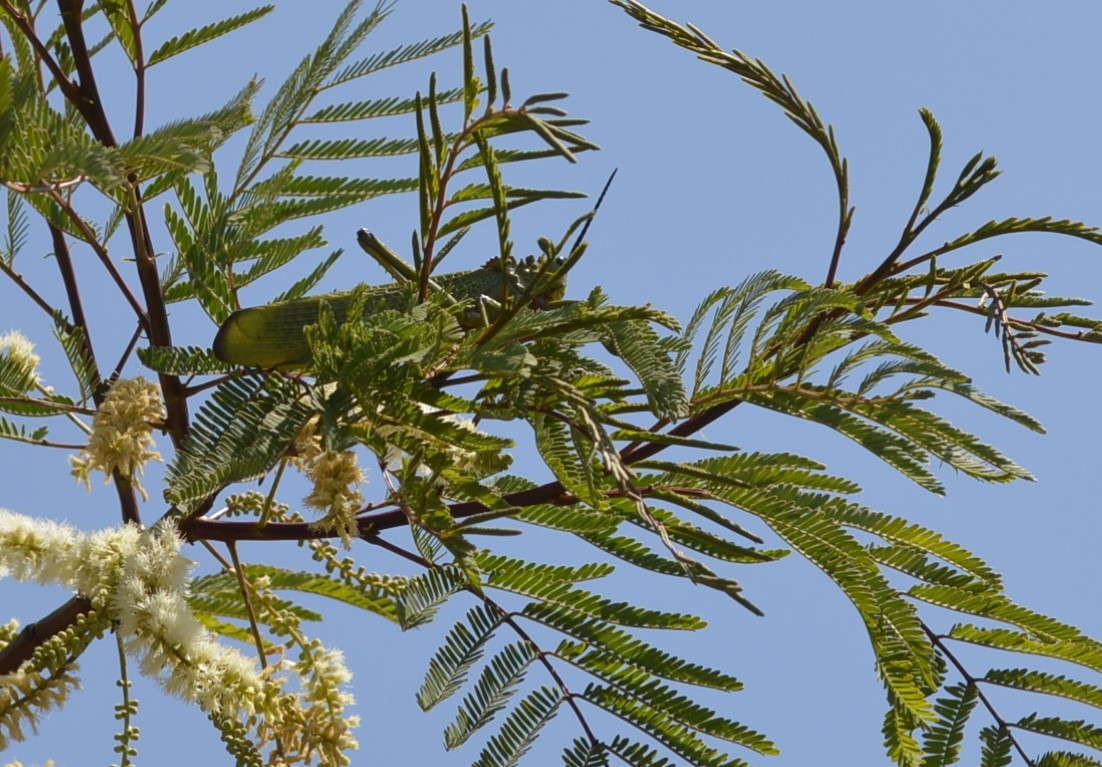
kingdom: Animalia
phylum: Arthropoda
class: Insecta
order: Orthoptera
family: Pyrgomorphidae
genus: Phymateus
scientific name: Phymateus viridipes
